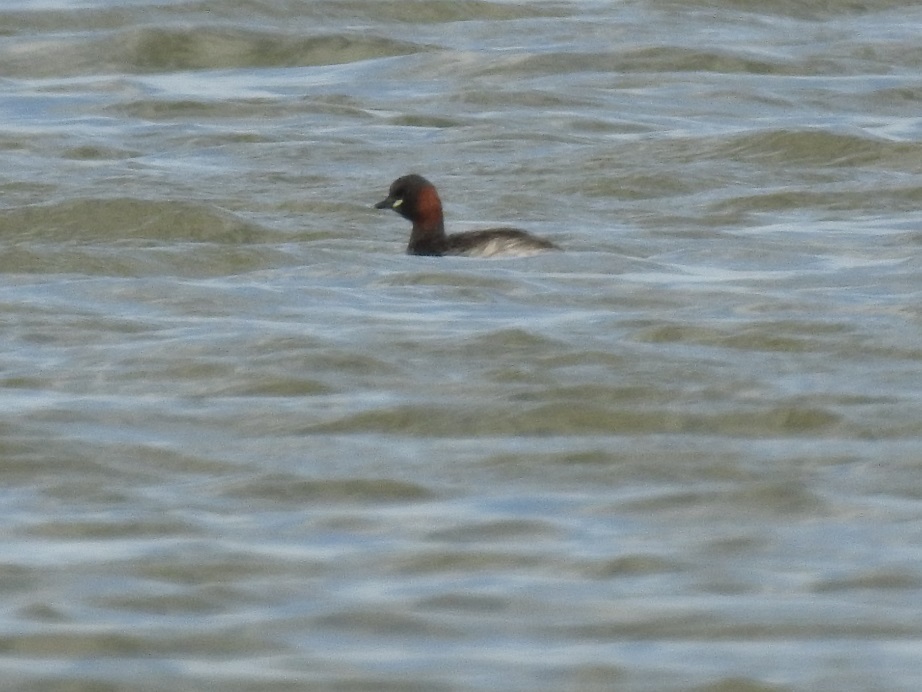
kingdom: Animalia
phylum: Chordata
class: Aves
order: Podicipediformes
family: Podicipedidae
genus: Tachybaptus
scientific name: Tachybaptus ruficollis
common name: Little grebe
